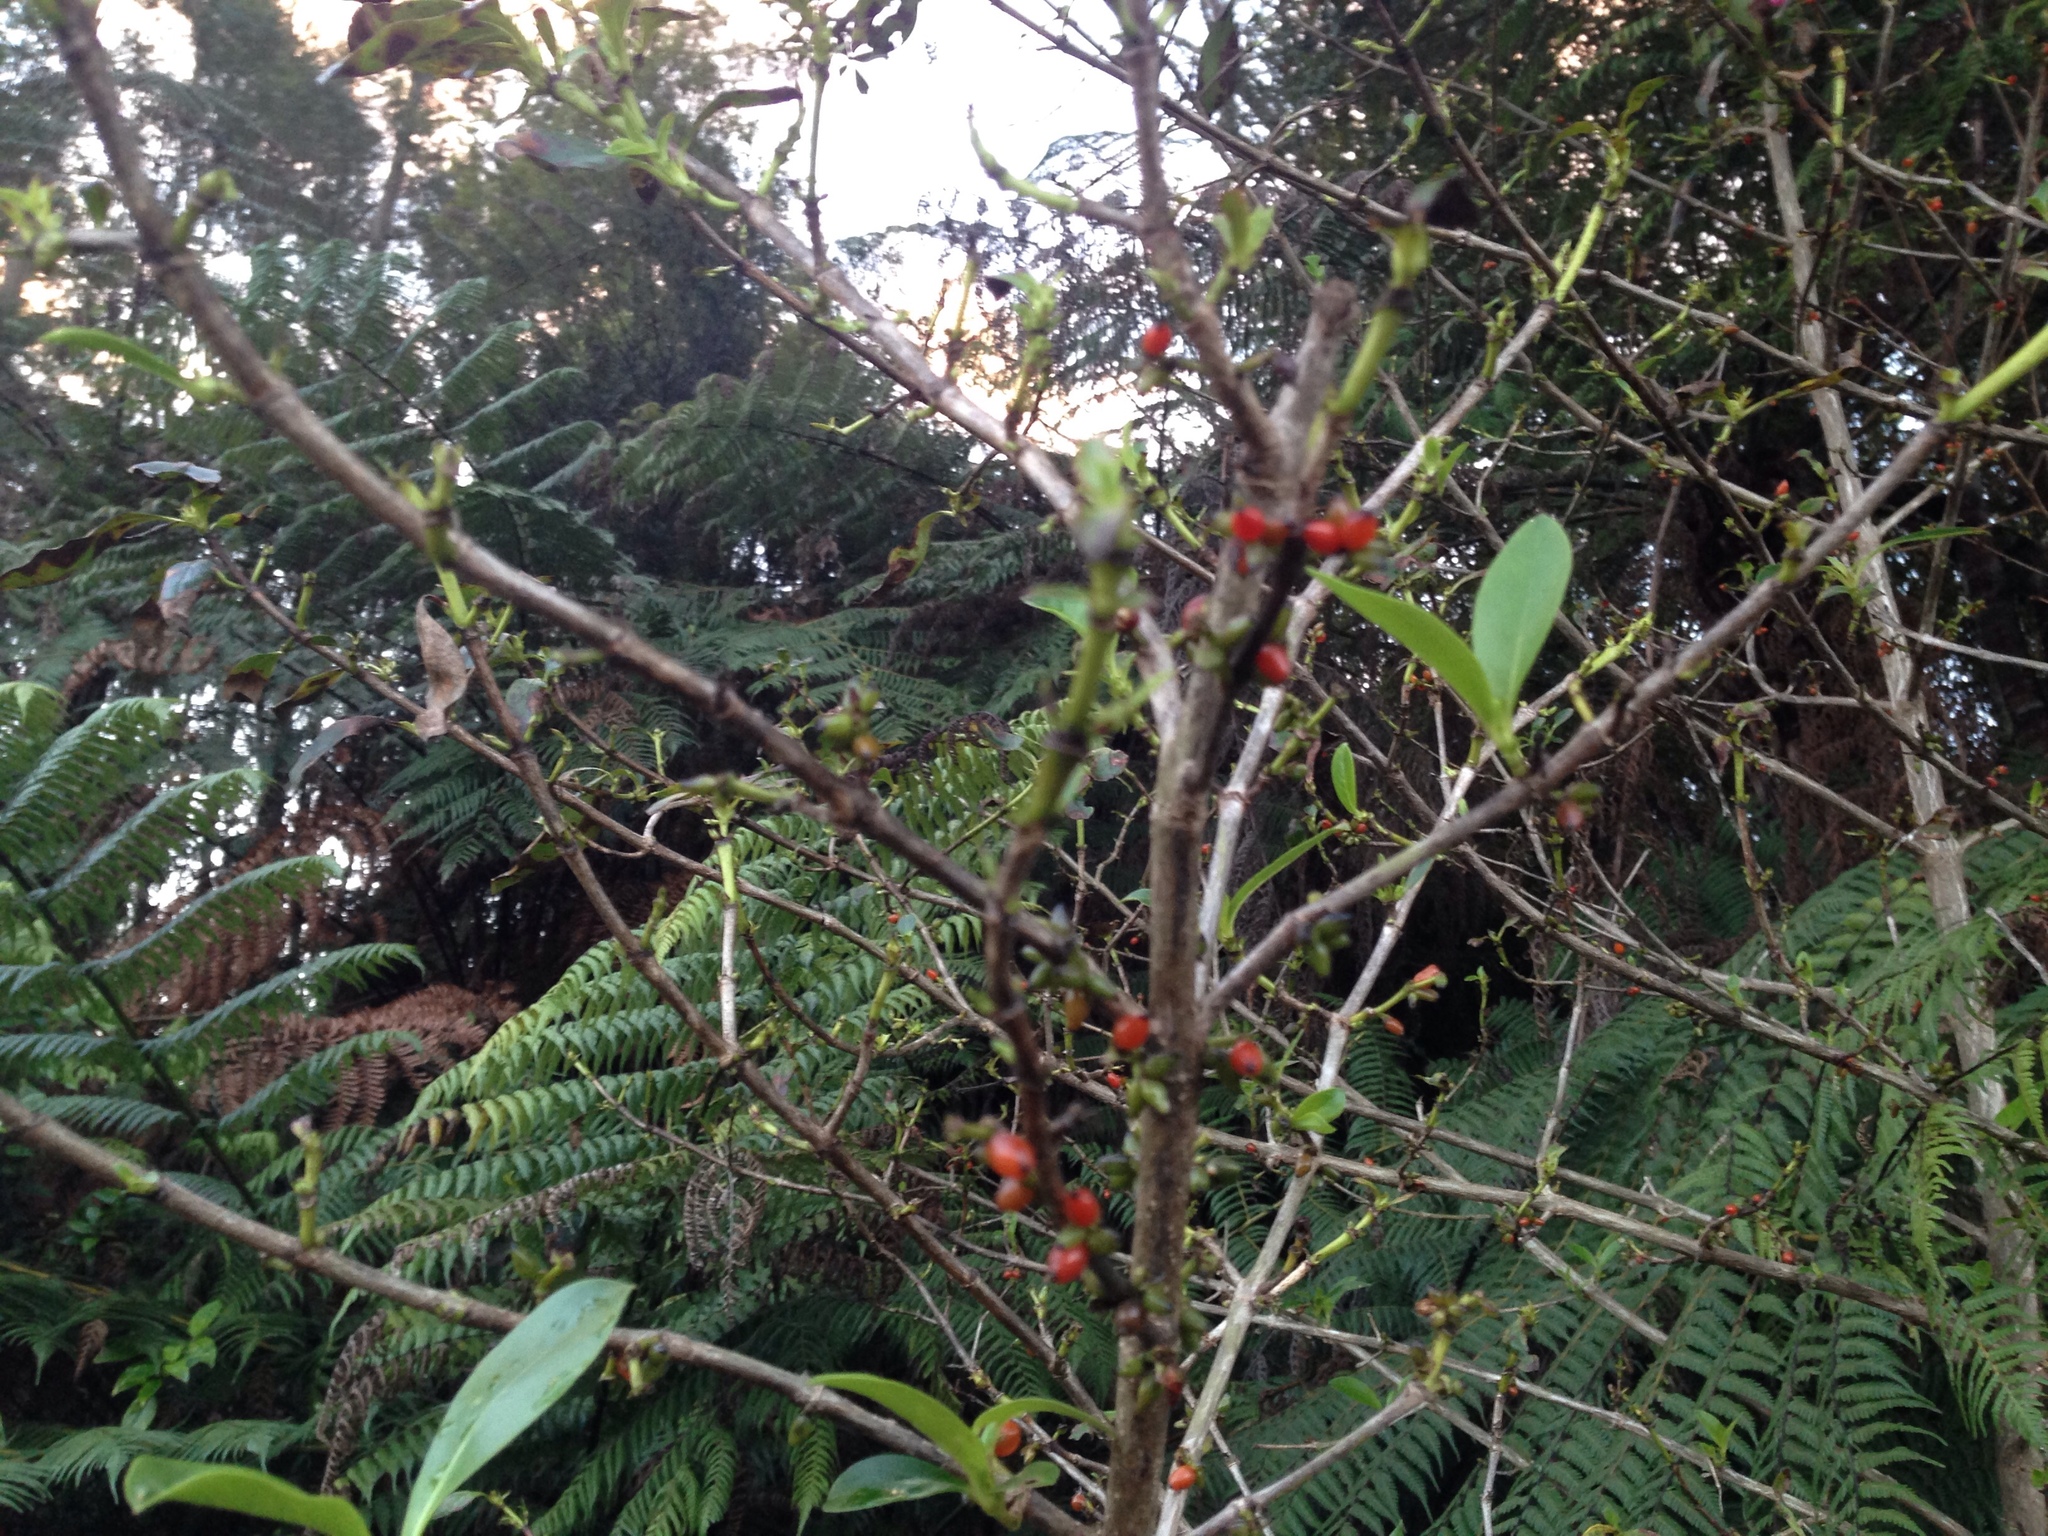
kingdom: Plantae
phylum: Tracheophyta
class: Magnoliopsida
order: Gentianales
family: Rubiaceae
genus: Coprosma
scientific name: Coprosma robusta
